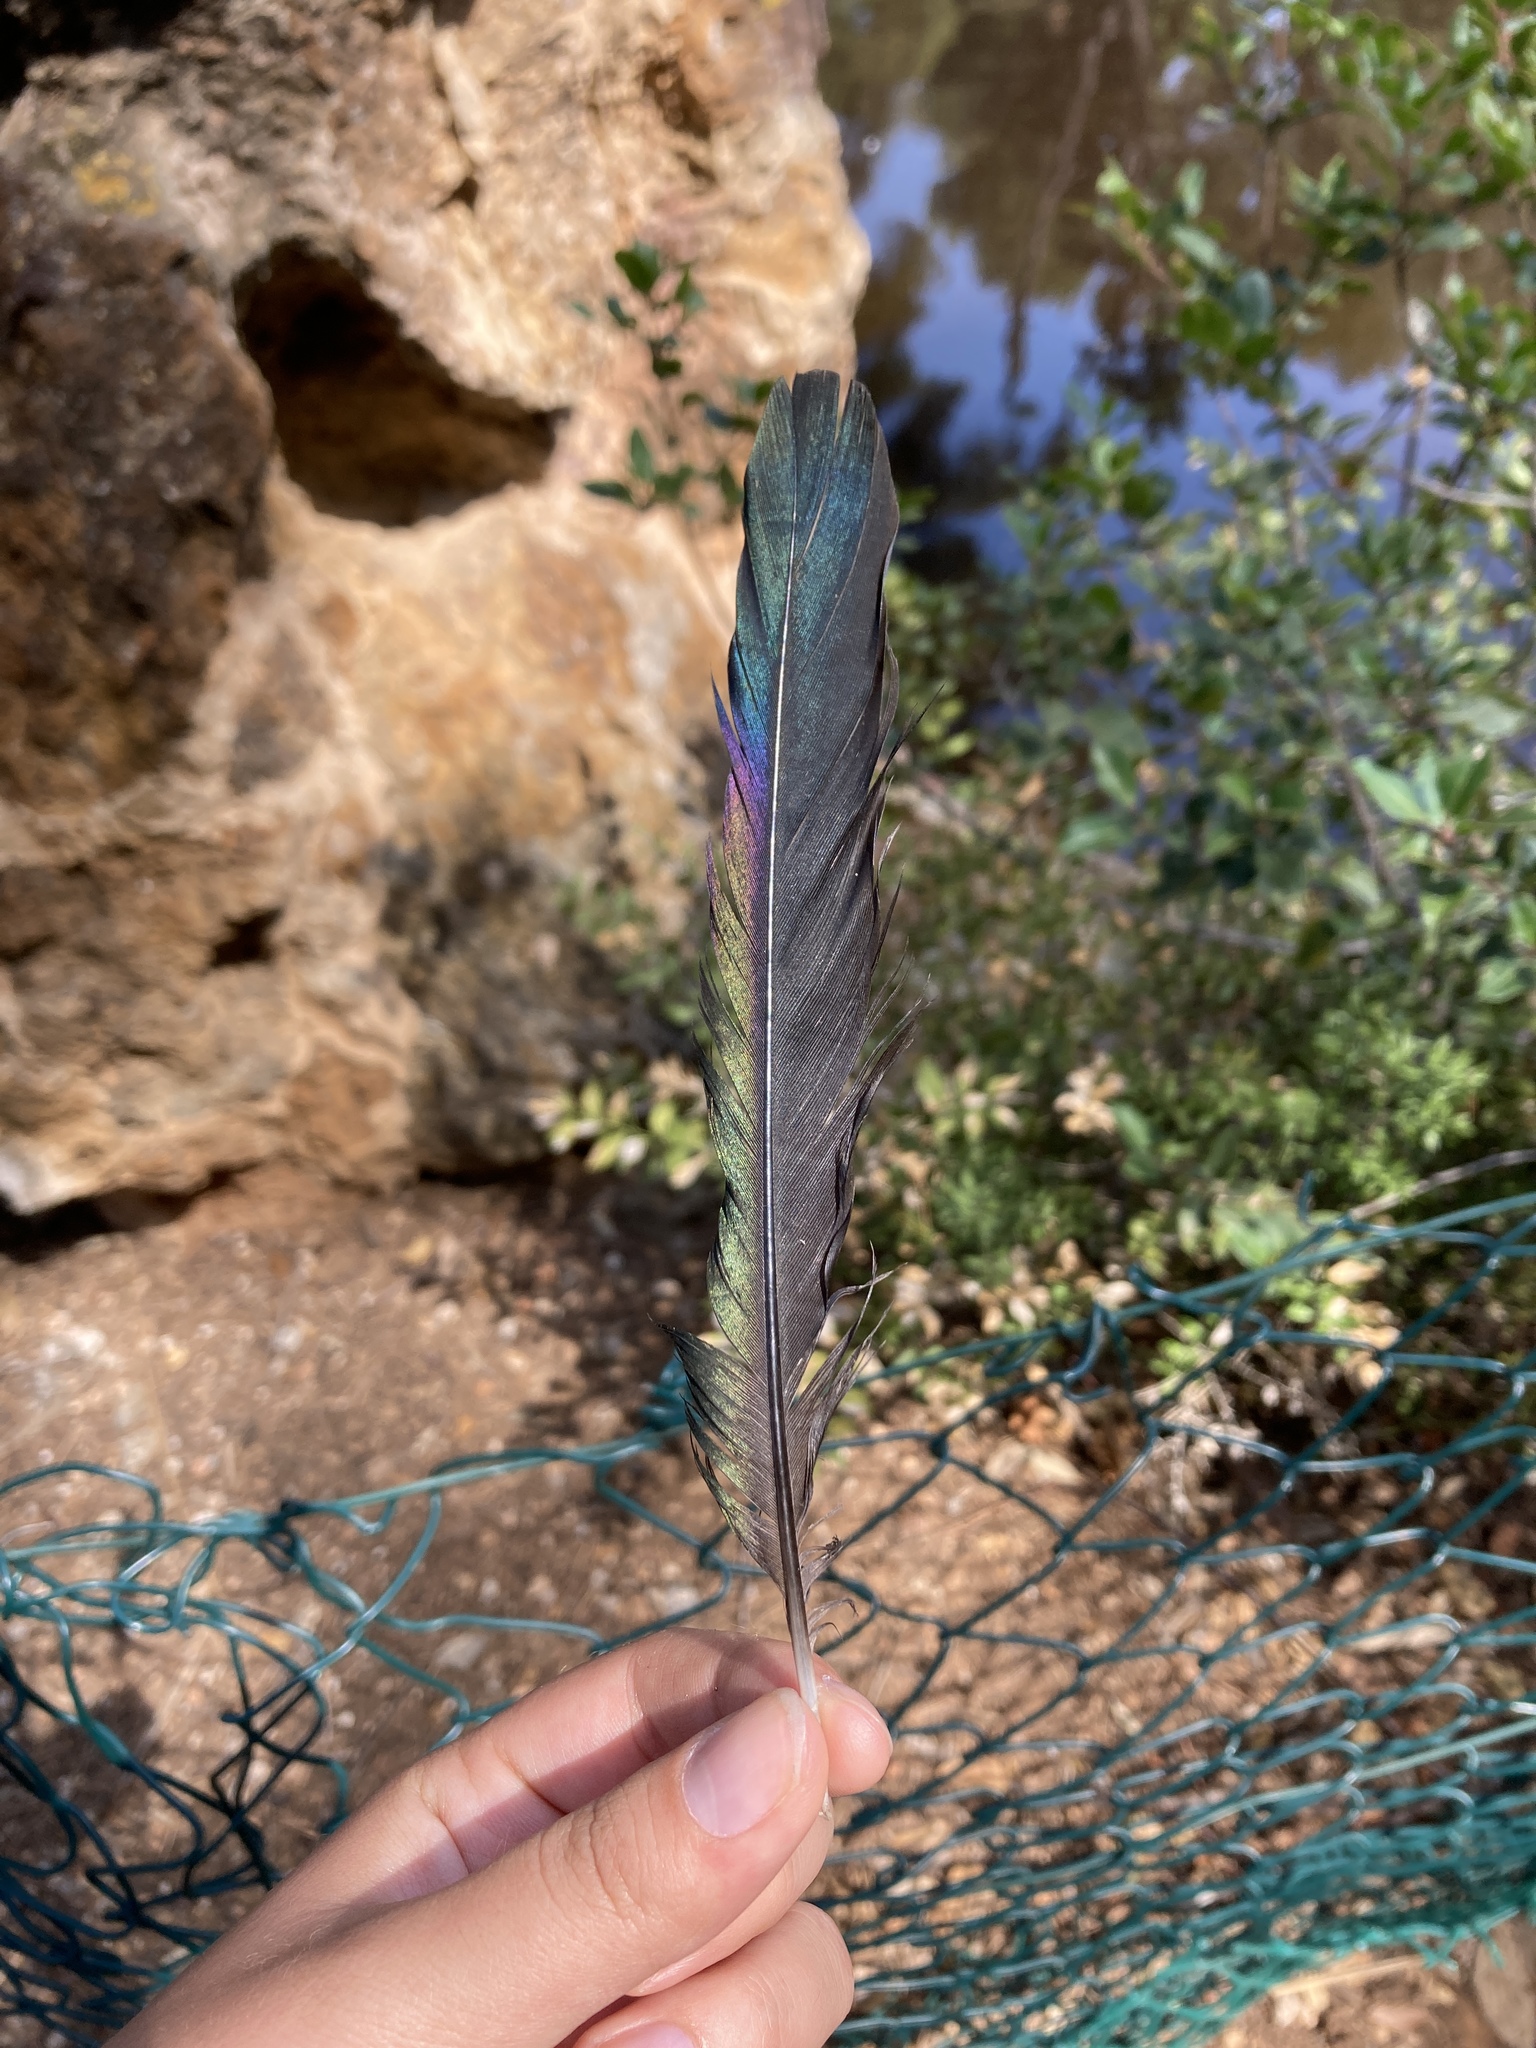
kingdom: Animalia
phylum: Chordata
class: Aves
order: Passeriformes
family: Corvidae
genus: Pica
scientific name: Pica pica
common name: Eurasian magpie
